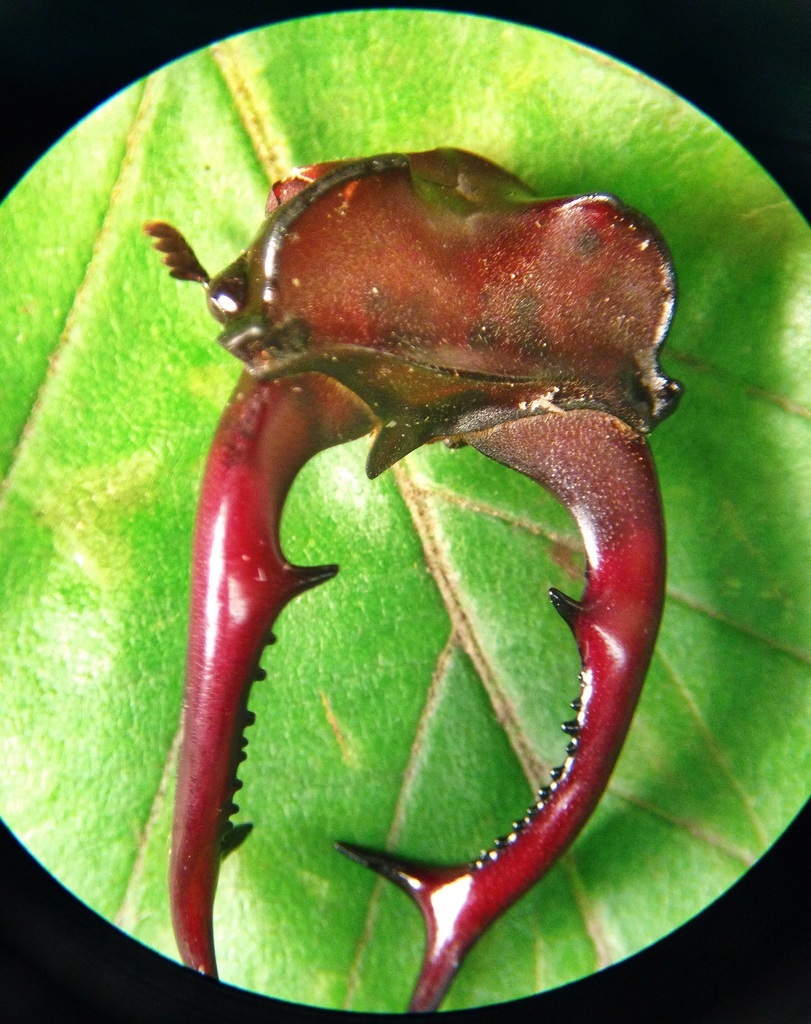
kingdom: Animalia
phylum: Arthropoda
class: Insecta
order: Coleoptera
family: Lucanidae
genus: Lucanus
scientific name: Lucanus elaphus
